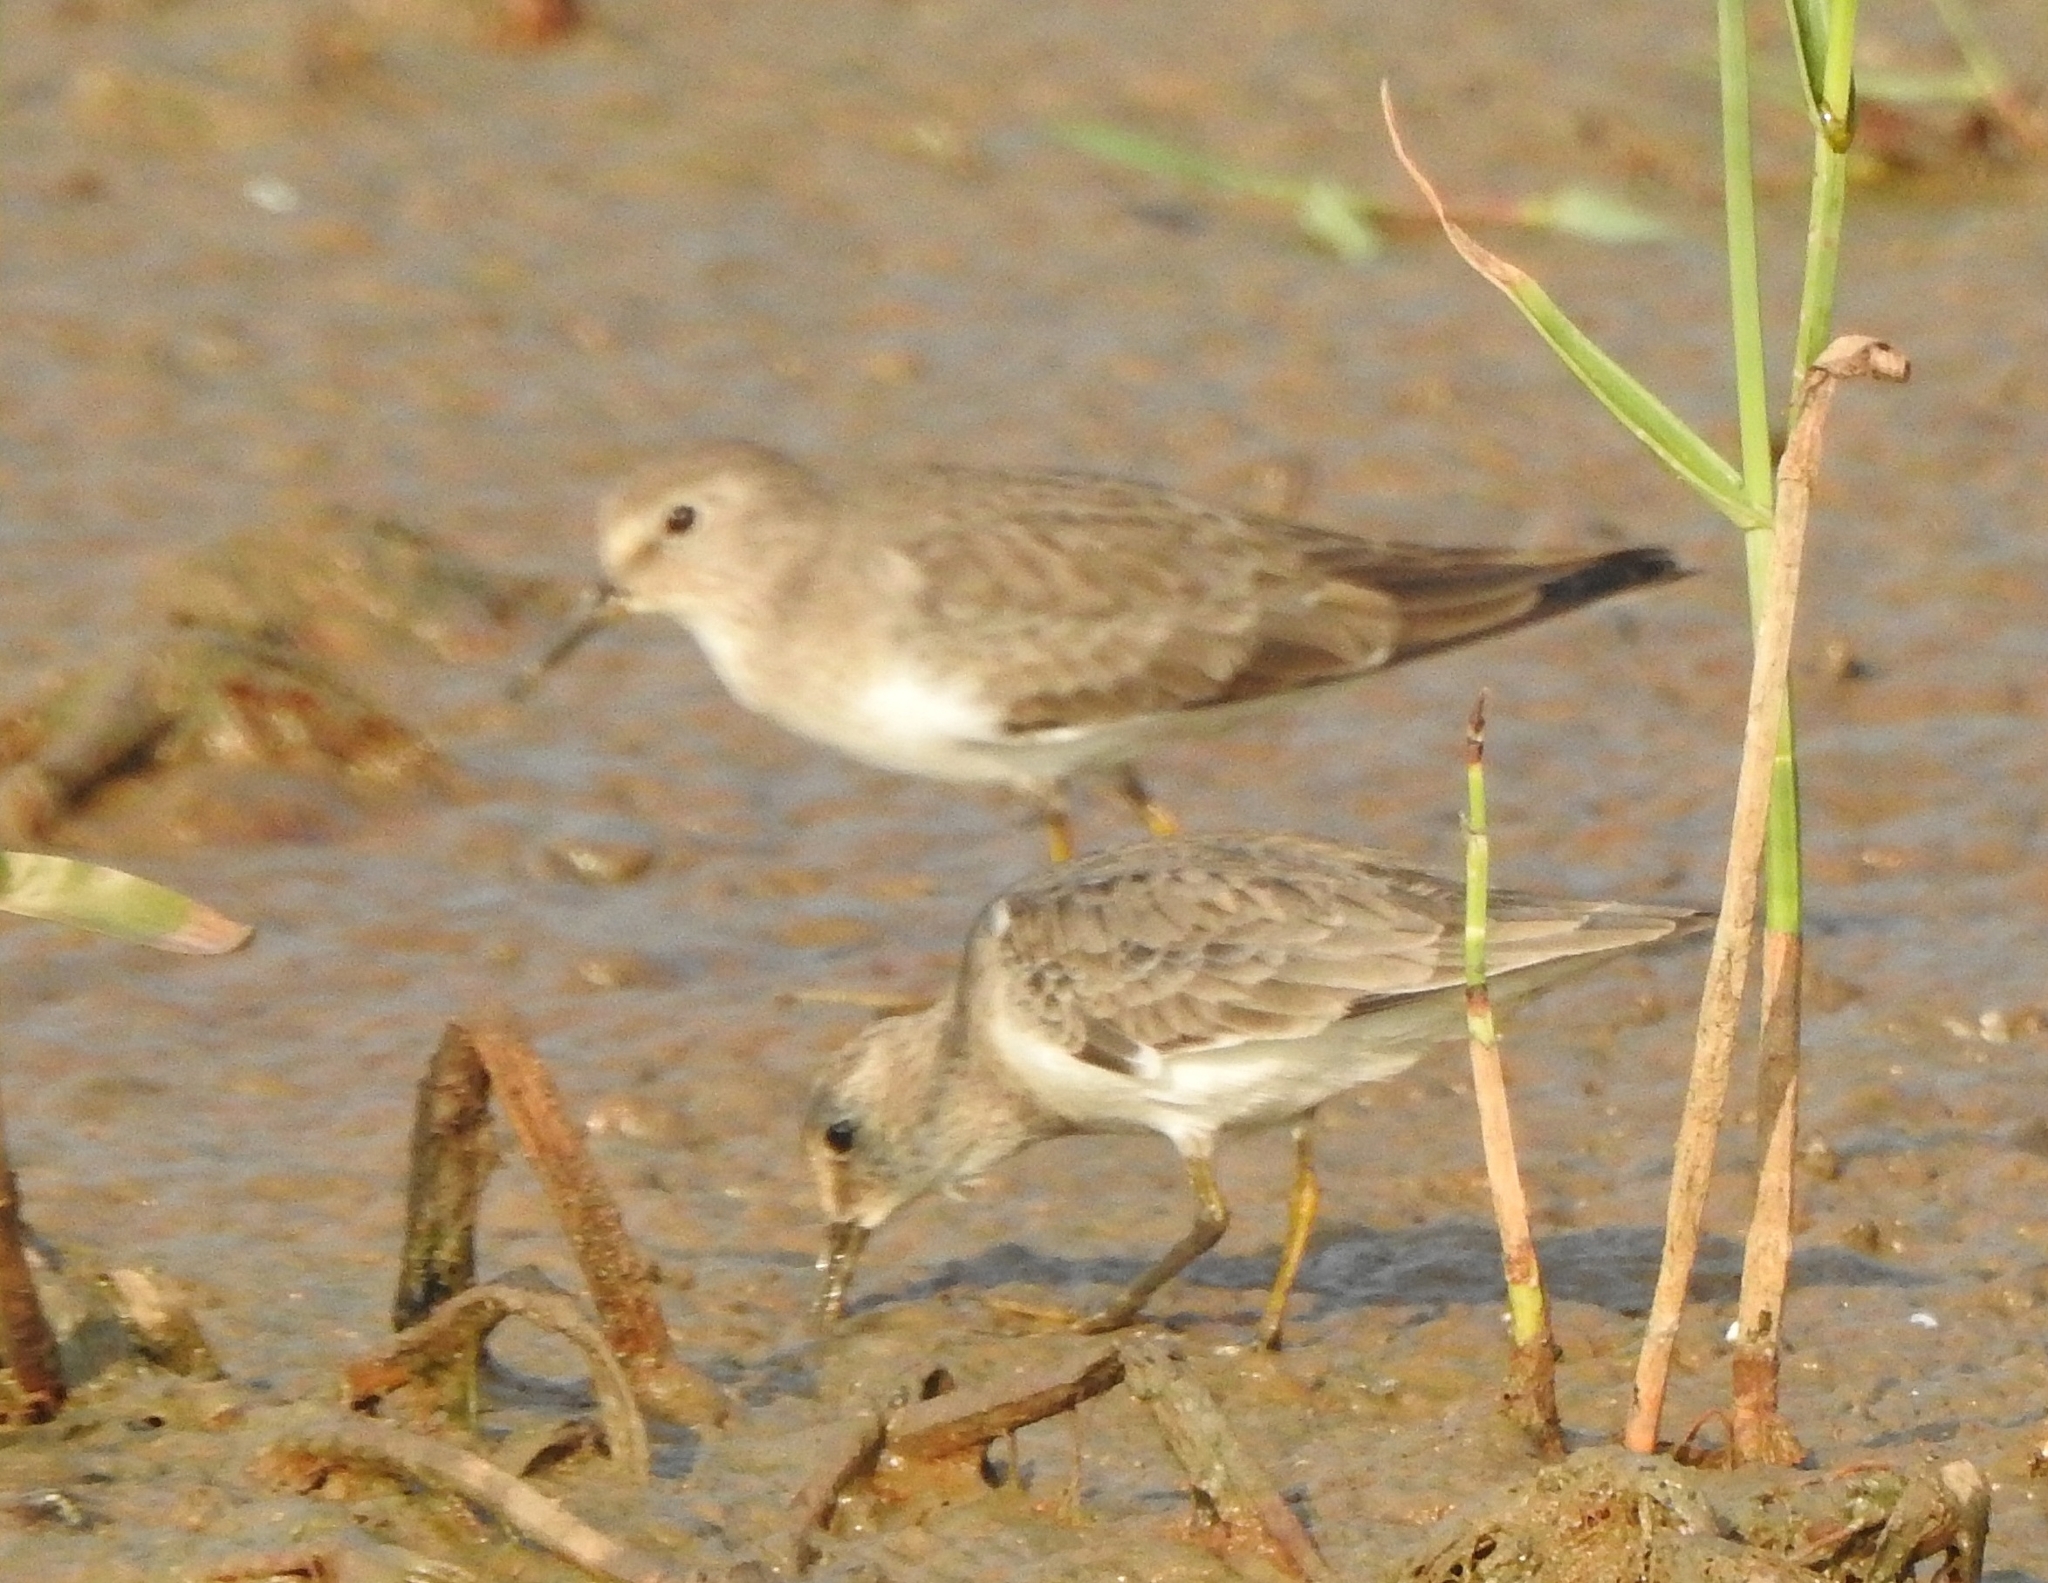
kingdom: Animalia
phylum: Chordata
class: Aves
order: Charadriiformes
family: Scolopacidae
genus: Calidris
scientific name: Calidris temminckii
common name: Temminck's stint
